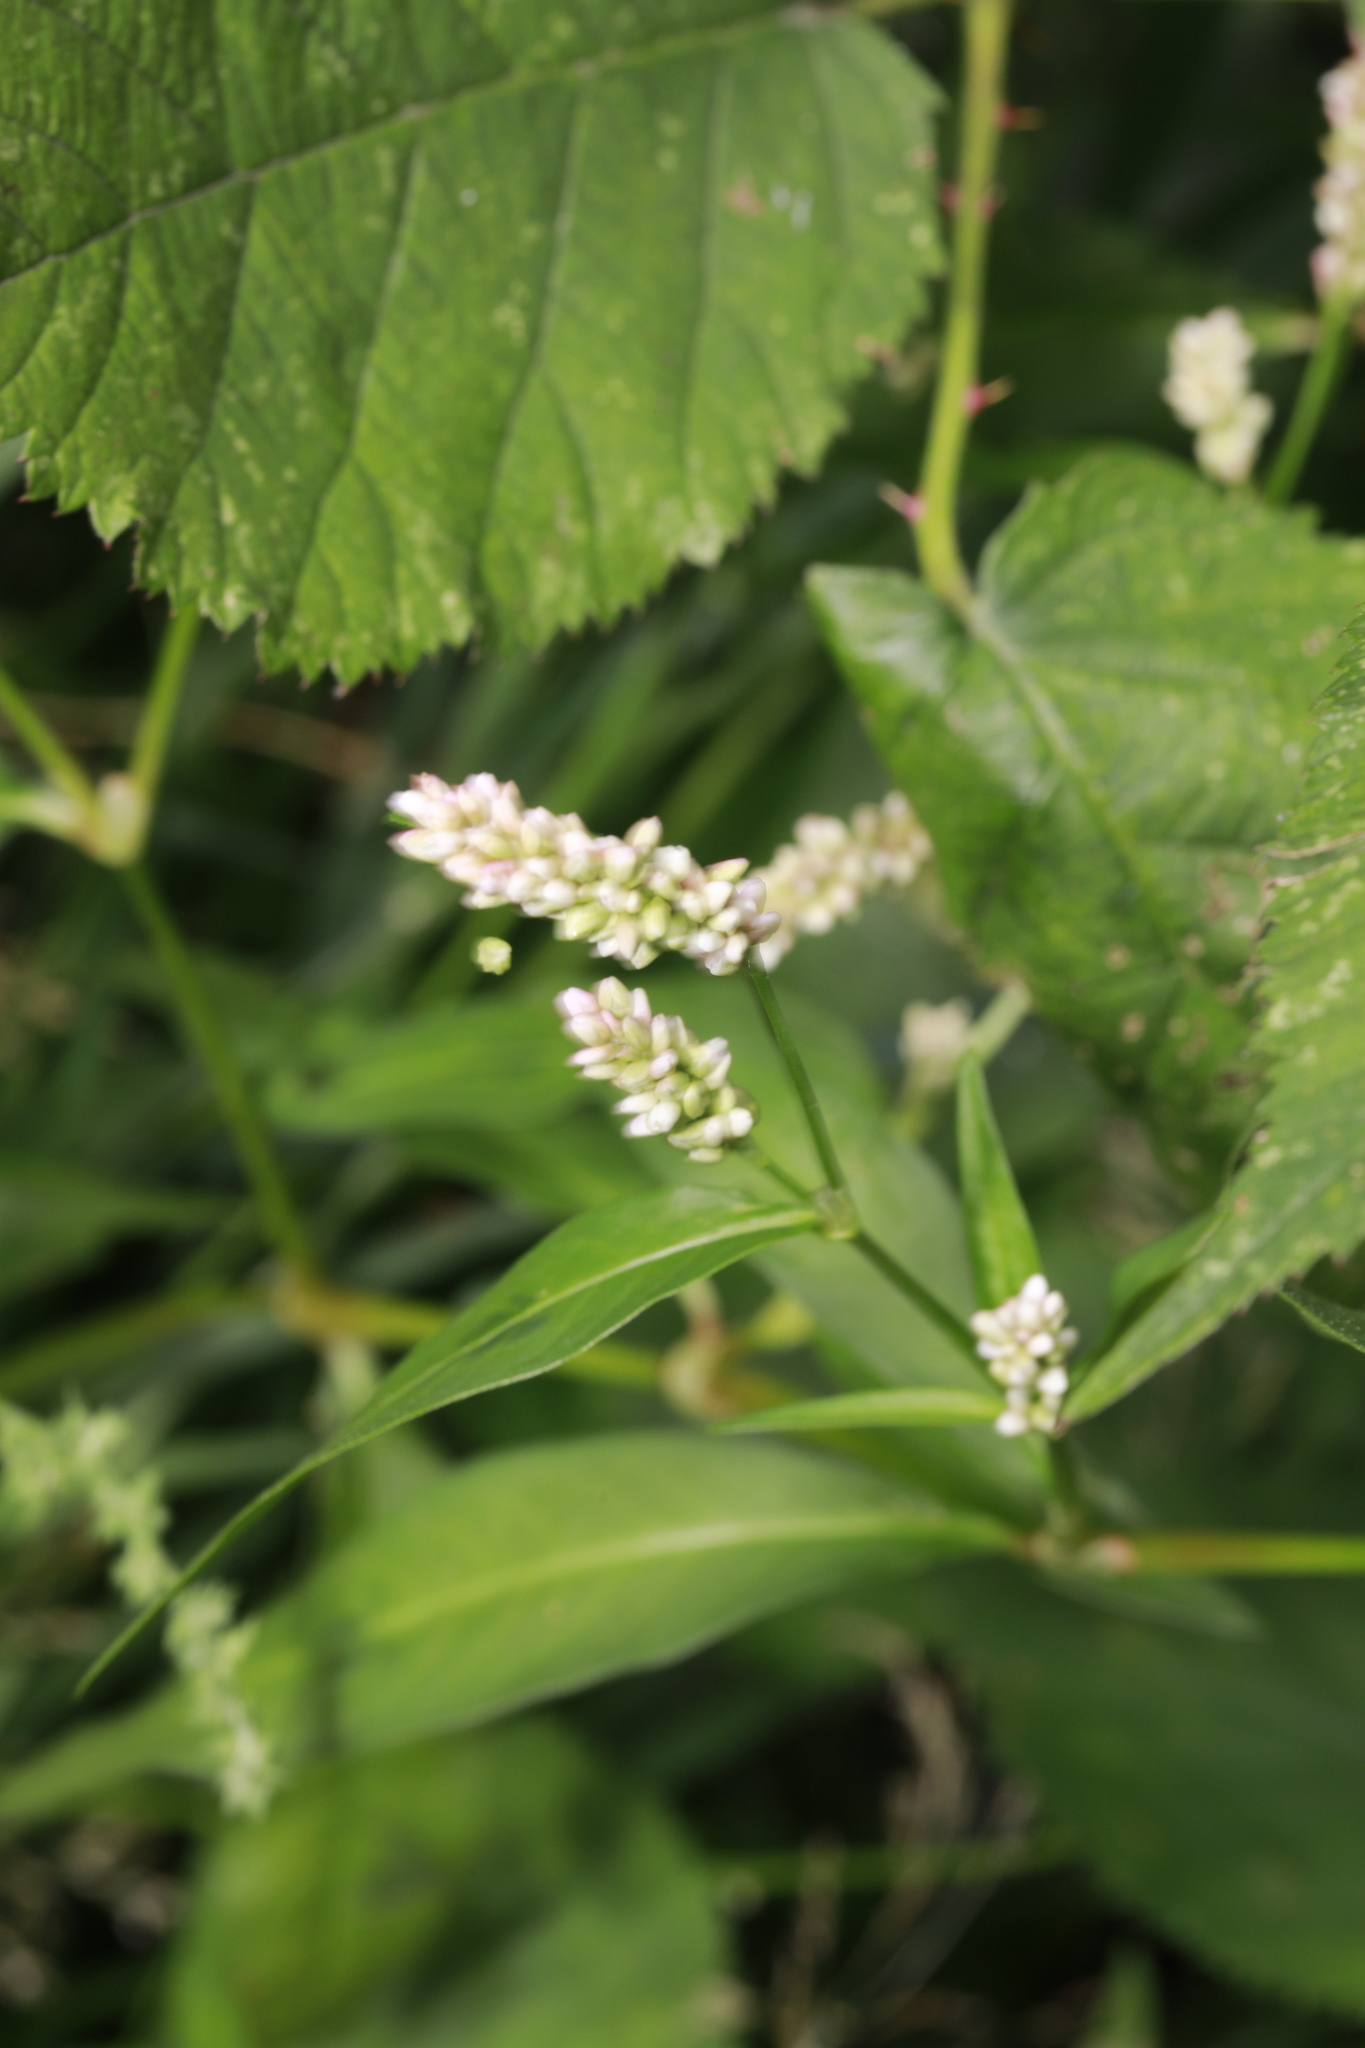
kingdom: Plantae
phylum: Tracheophyta
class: Magnoliopsida
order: Caryophyllales
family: Polygonaceae
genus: Persicaria
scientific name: Persicaria lapathifolia
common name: Curlytop knotweed
